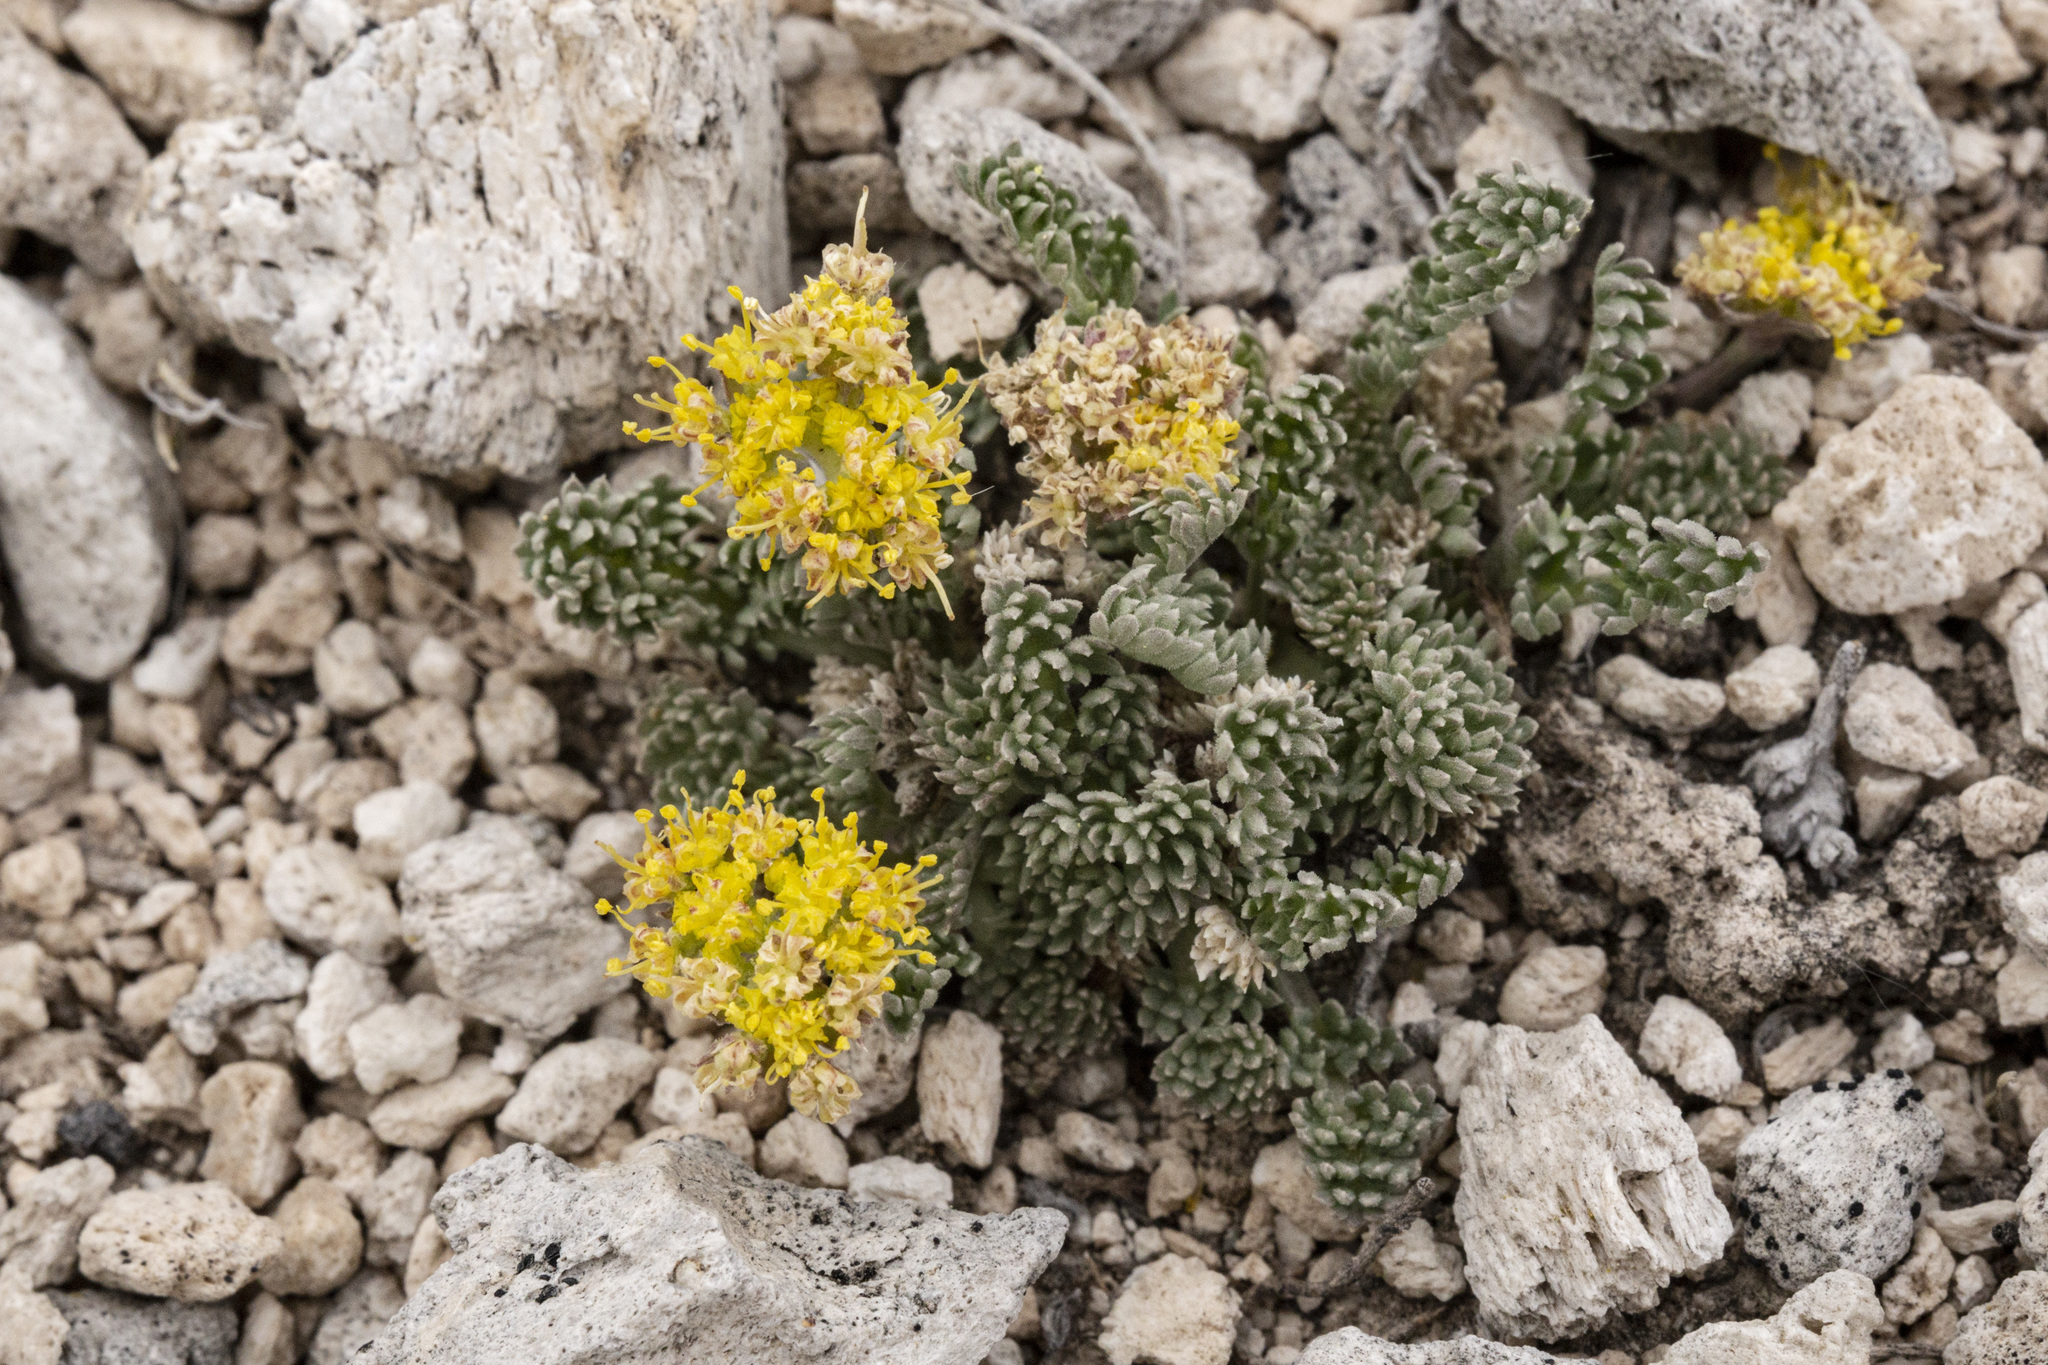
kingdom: Plantae
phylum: Tracheophyta
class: Magnoliopsida
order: Apiales
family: Apiaceae
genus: Oreoxis
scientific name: Oreoxis alpina
